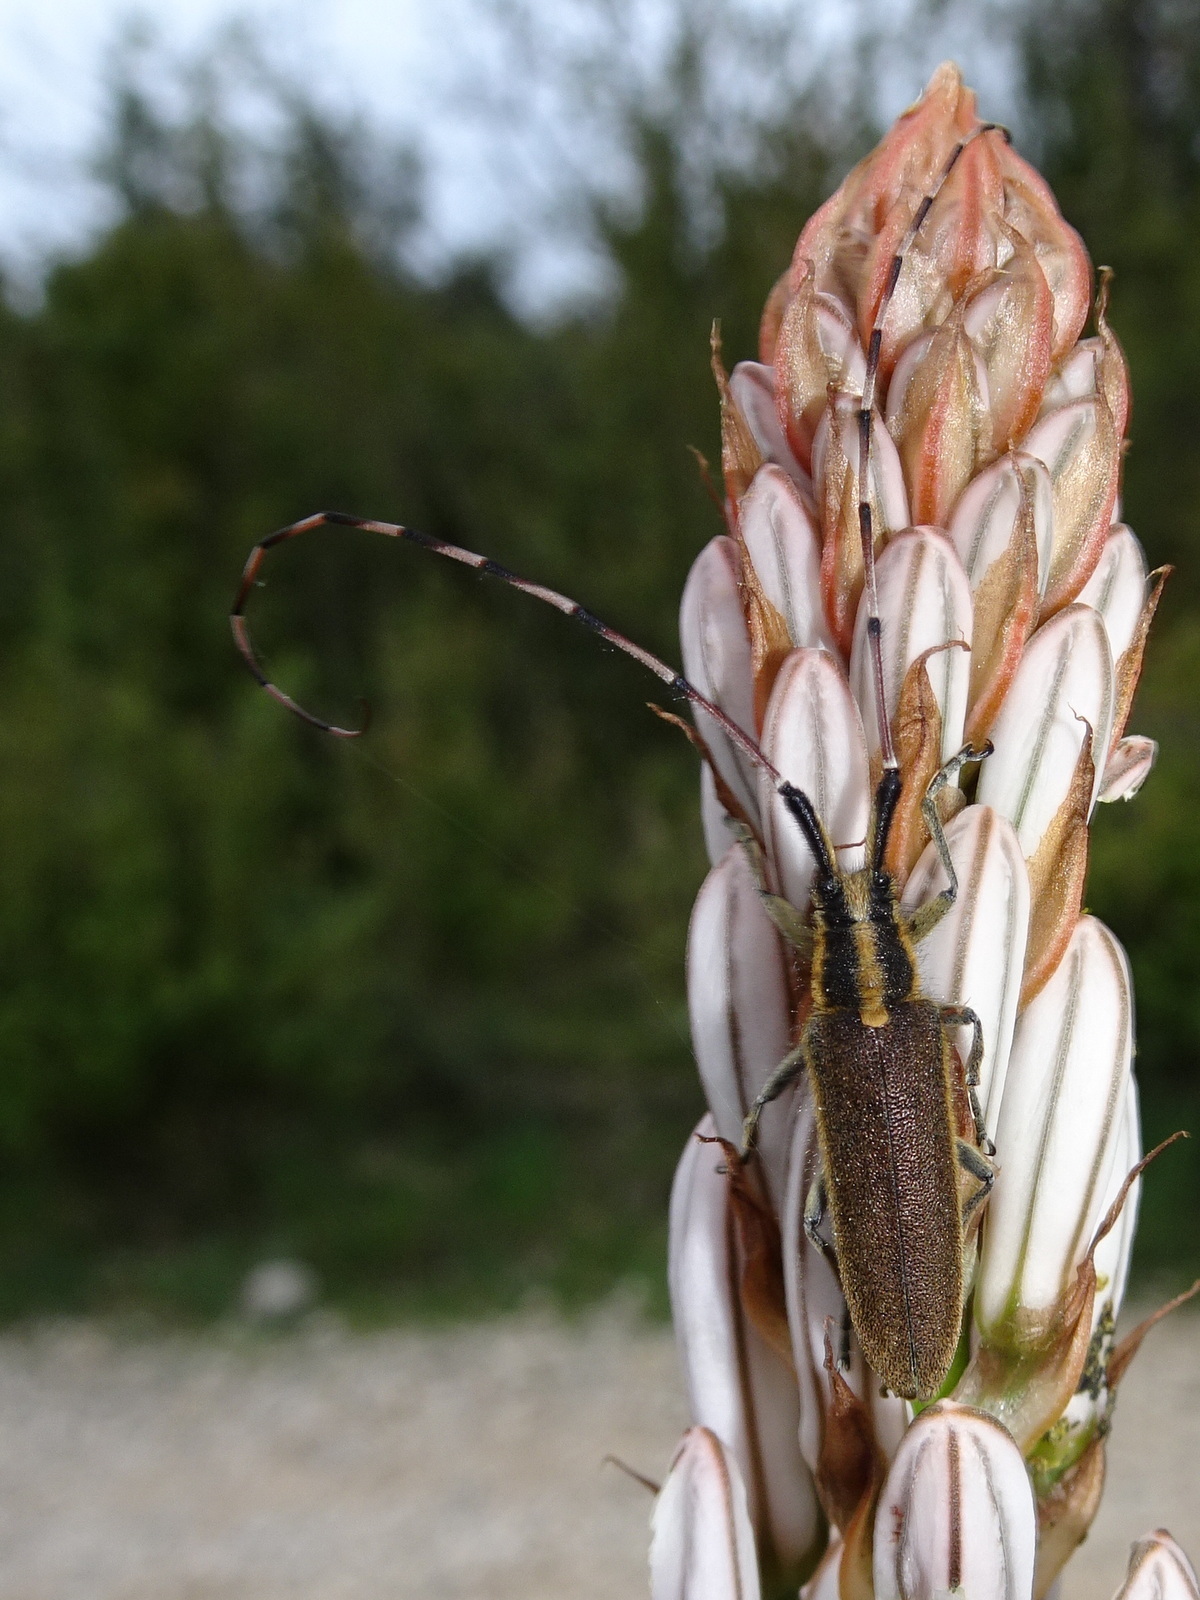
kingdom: Animalia
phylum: Arthropoda
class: Insecta
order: Coleoptera
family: Cerambycidae
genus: Agapanthia
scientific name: Agapanthia asphodeli
